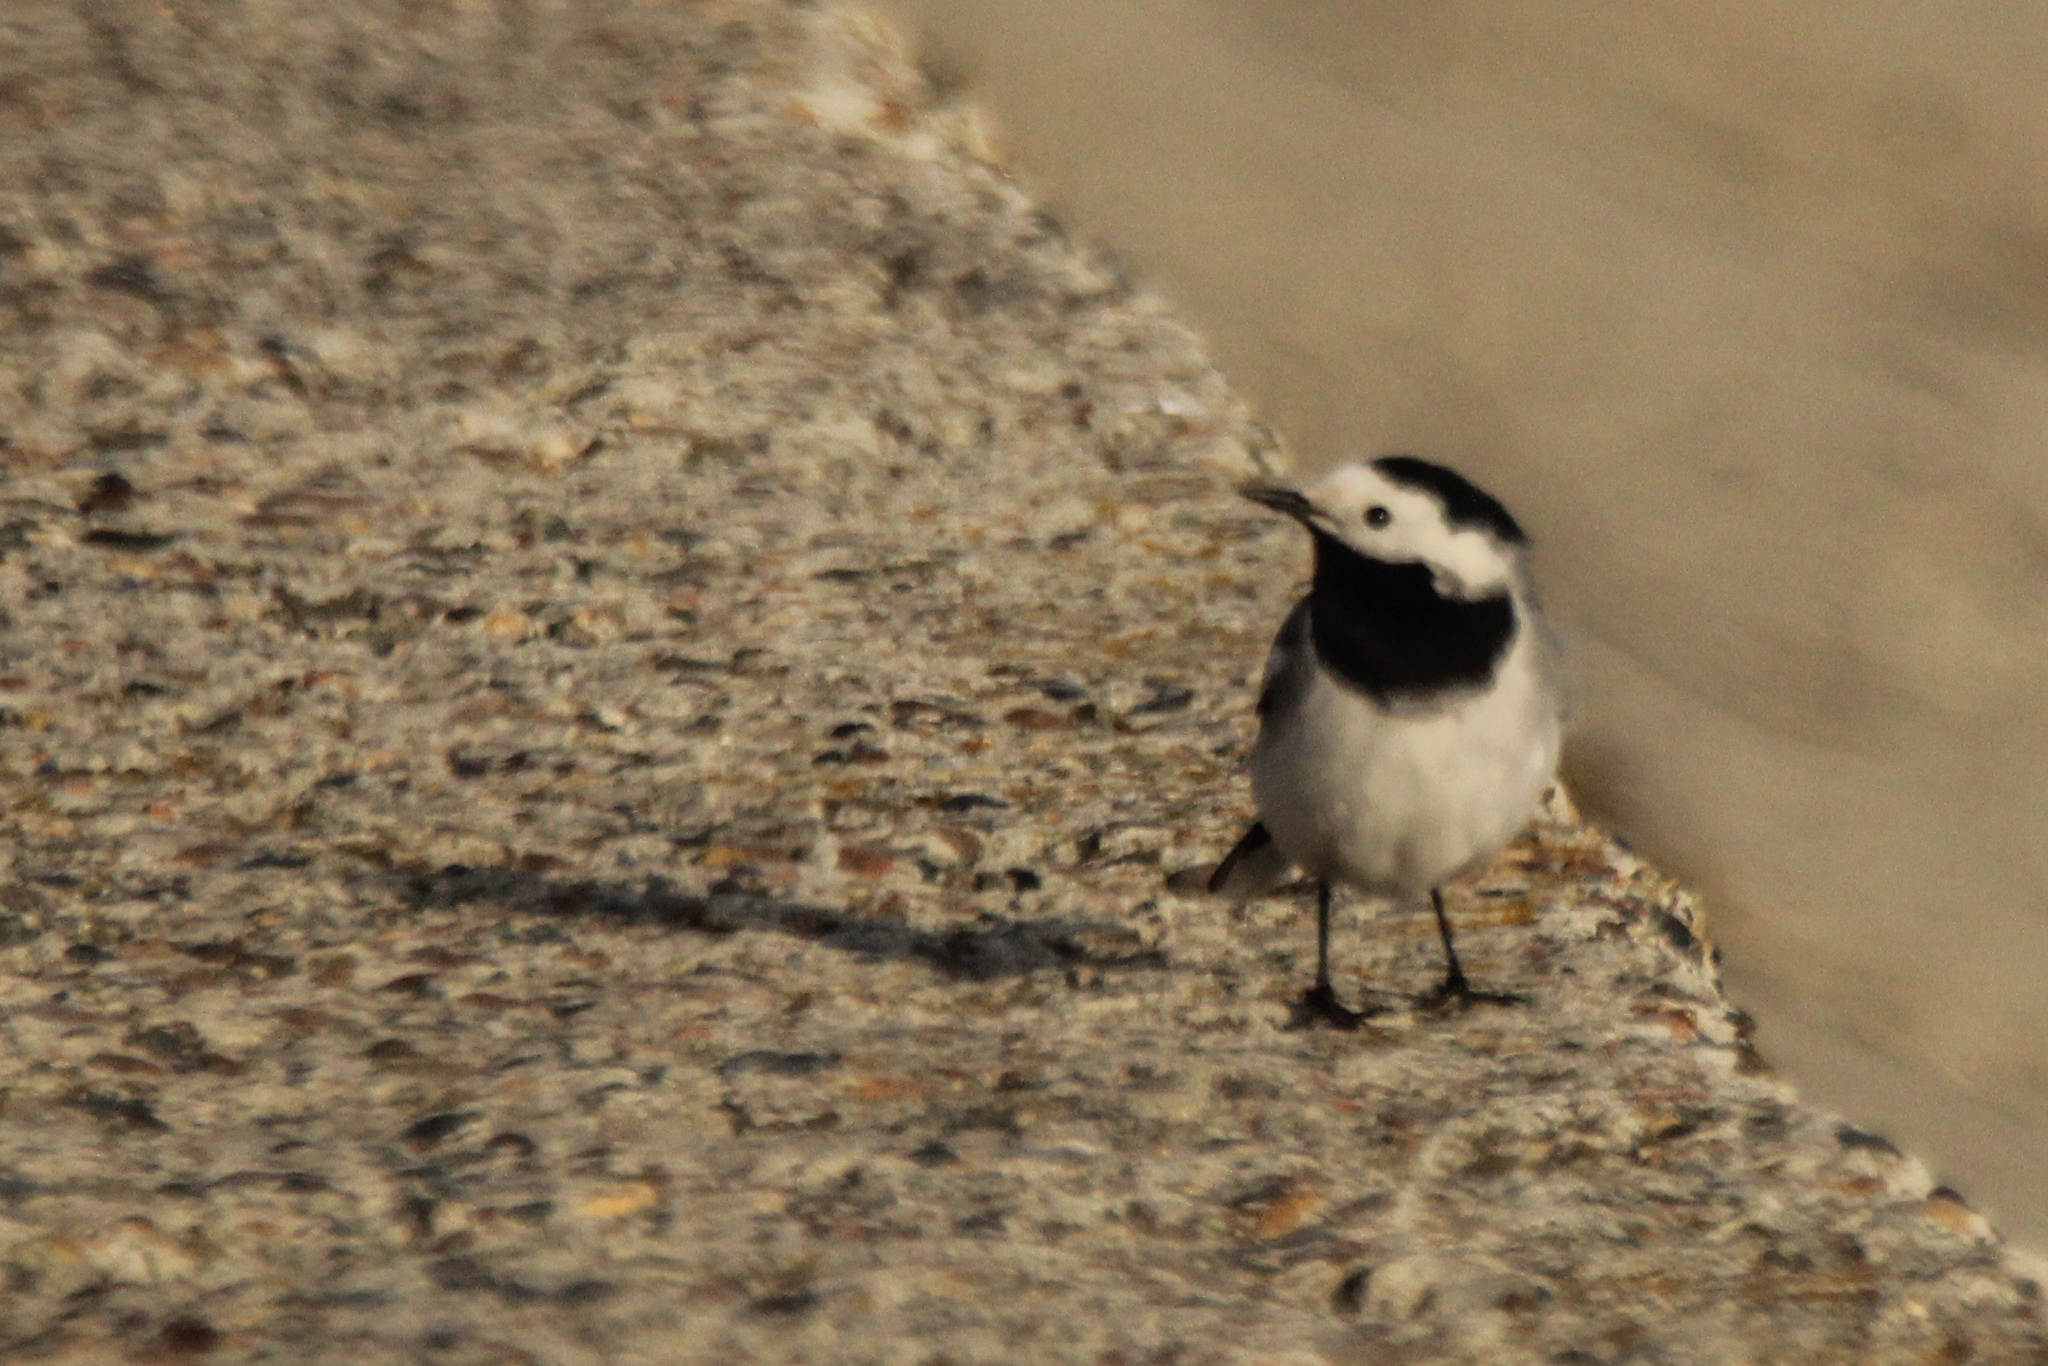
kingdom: Animalia
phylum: Chordata
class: Aves
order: Passeriformes
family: Motacillidae
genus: Motacilla
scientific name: Motacilla alba
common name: White wagtail
